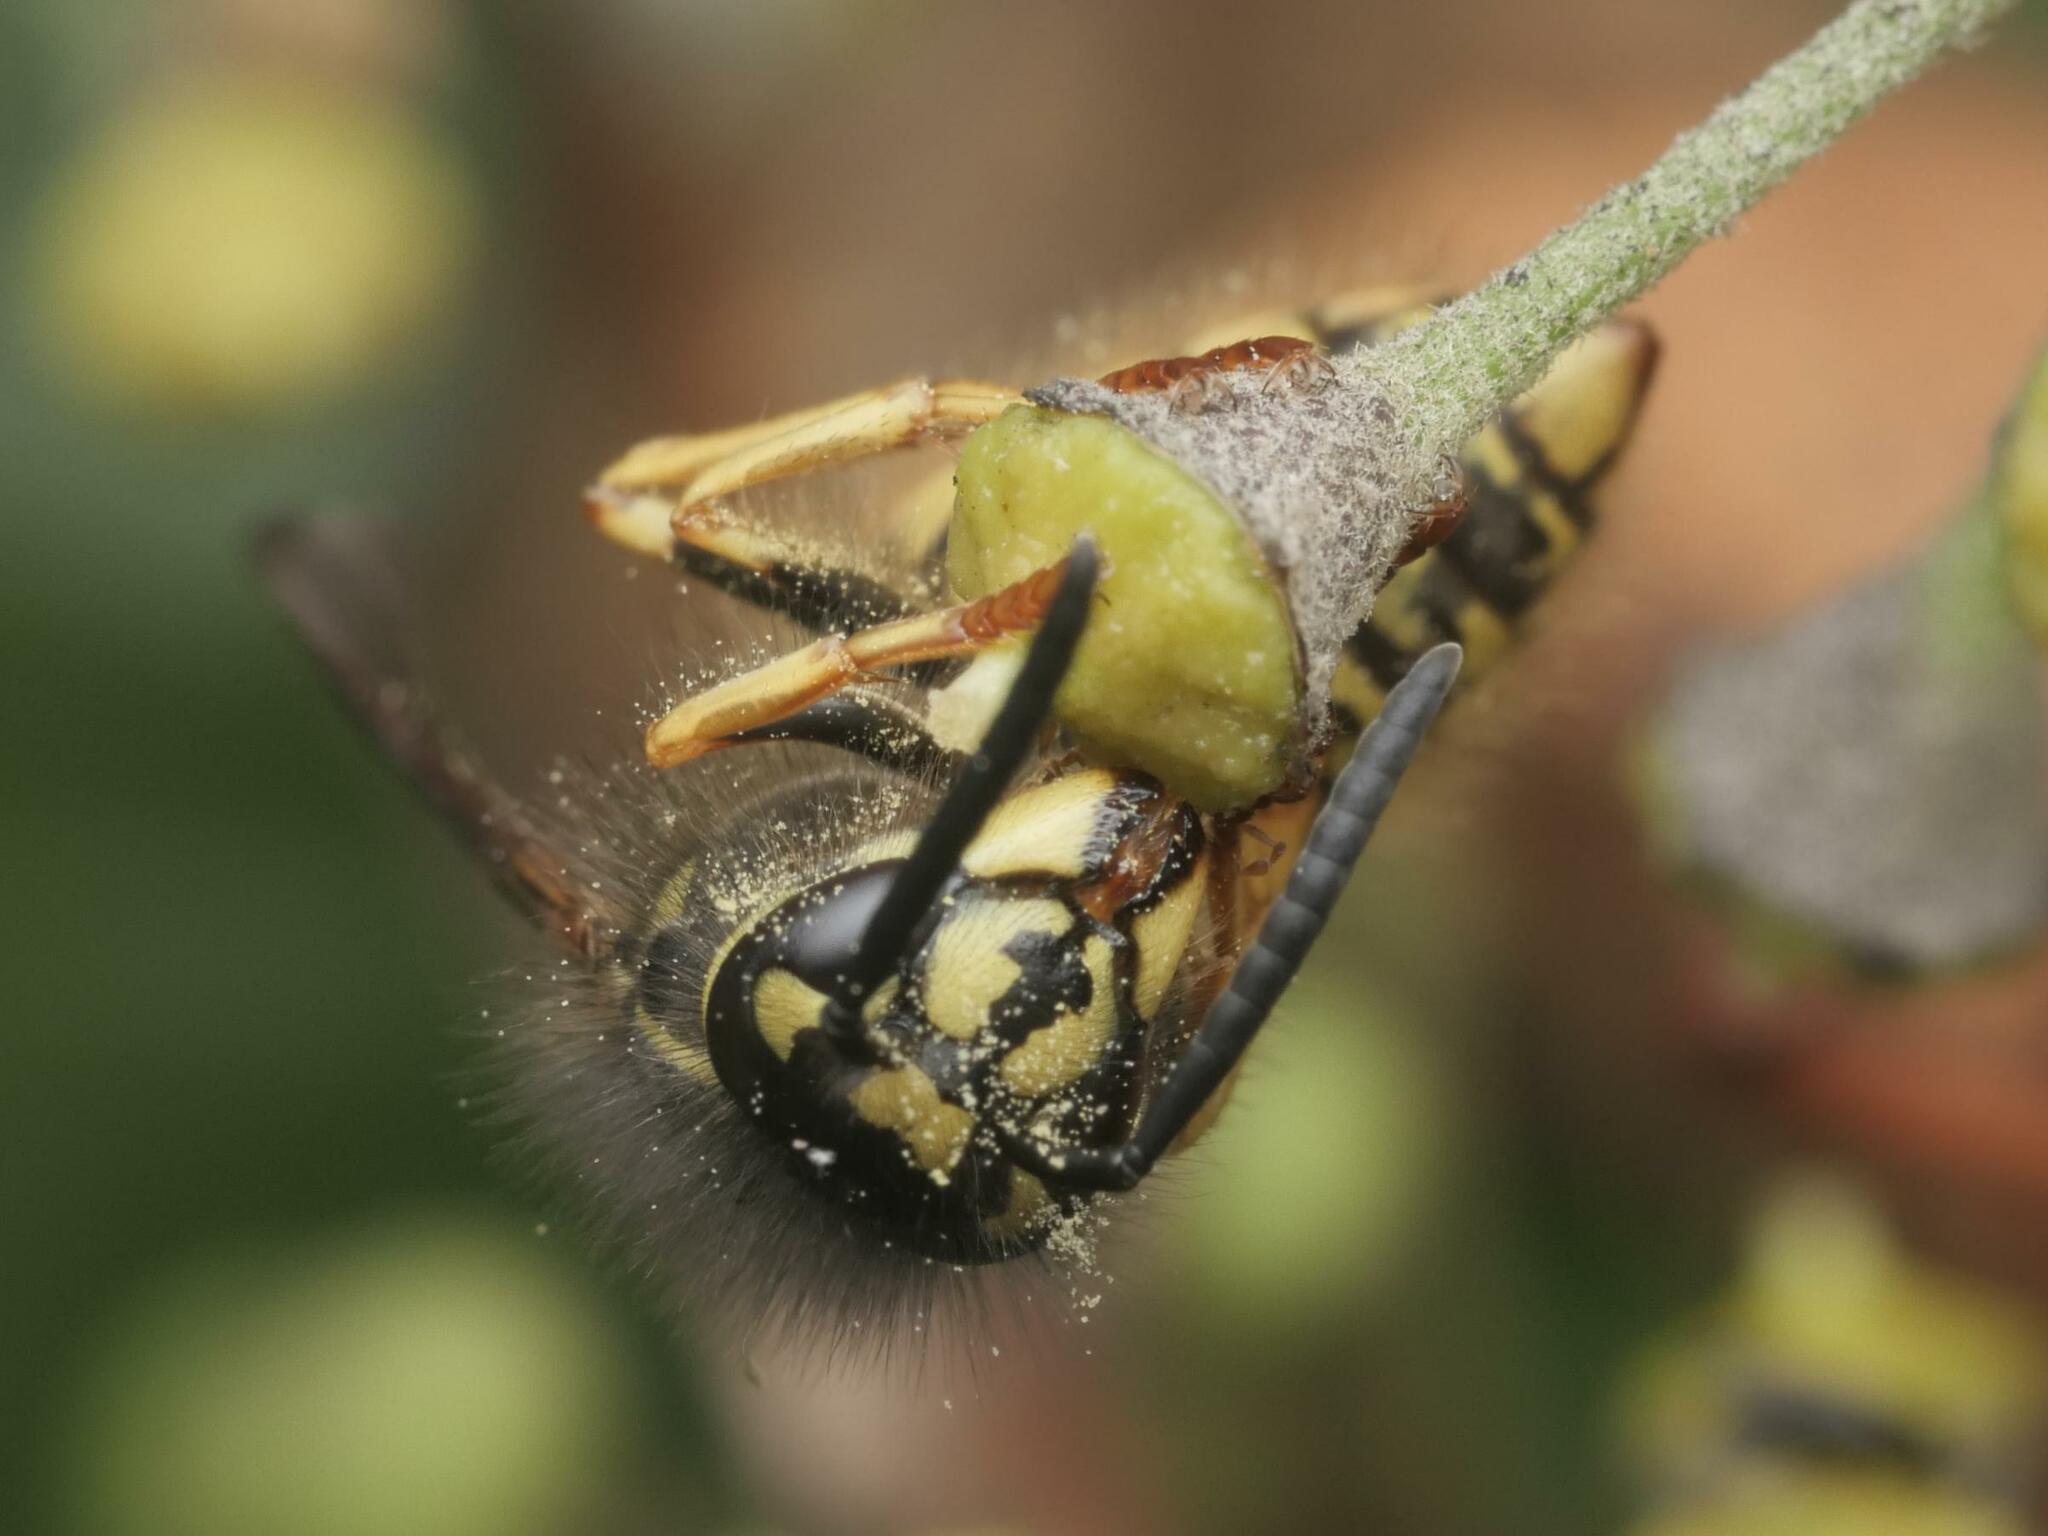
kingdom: Animalia
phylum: Arthropoda
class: Insecta
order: Hymenoptera
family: Vespidae
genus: Vespula
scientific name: Vespula vulgaris
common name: Common wasp
